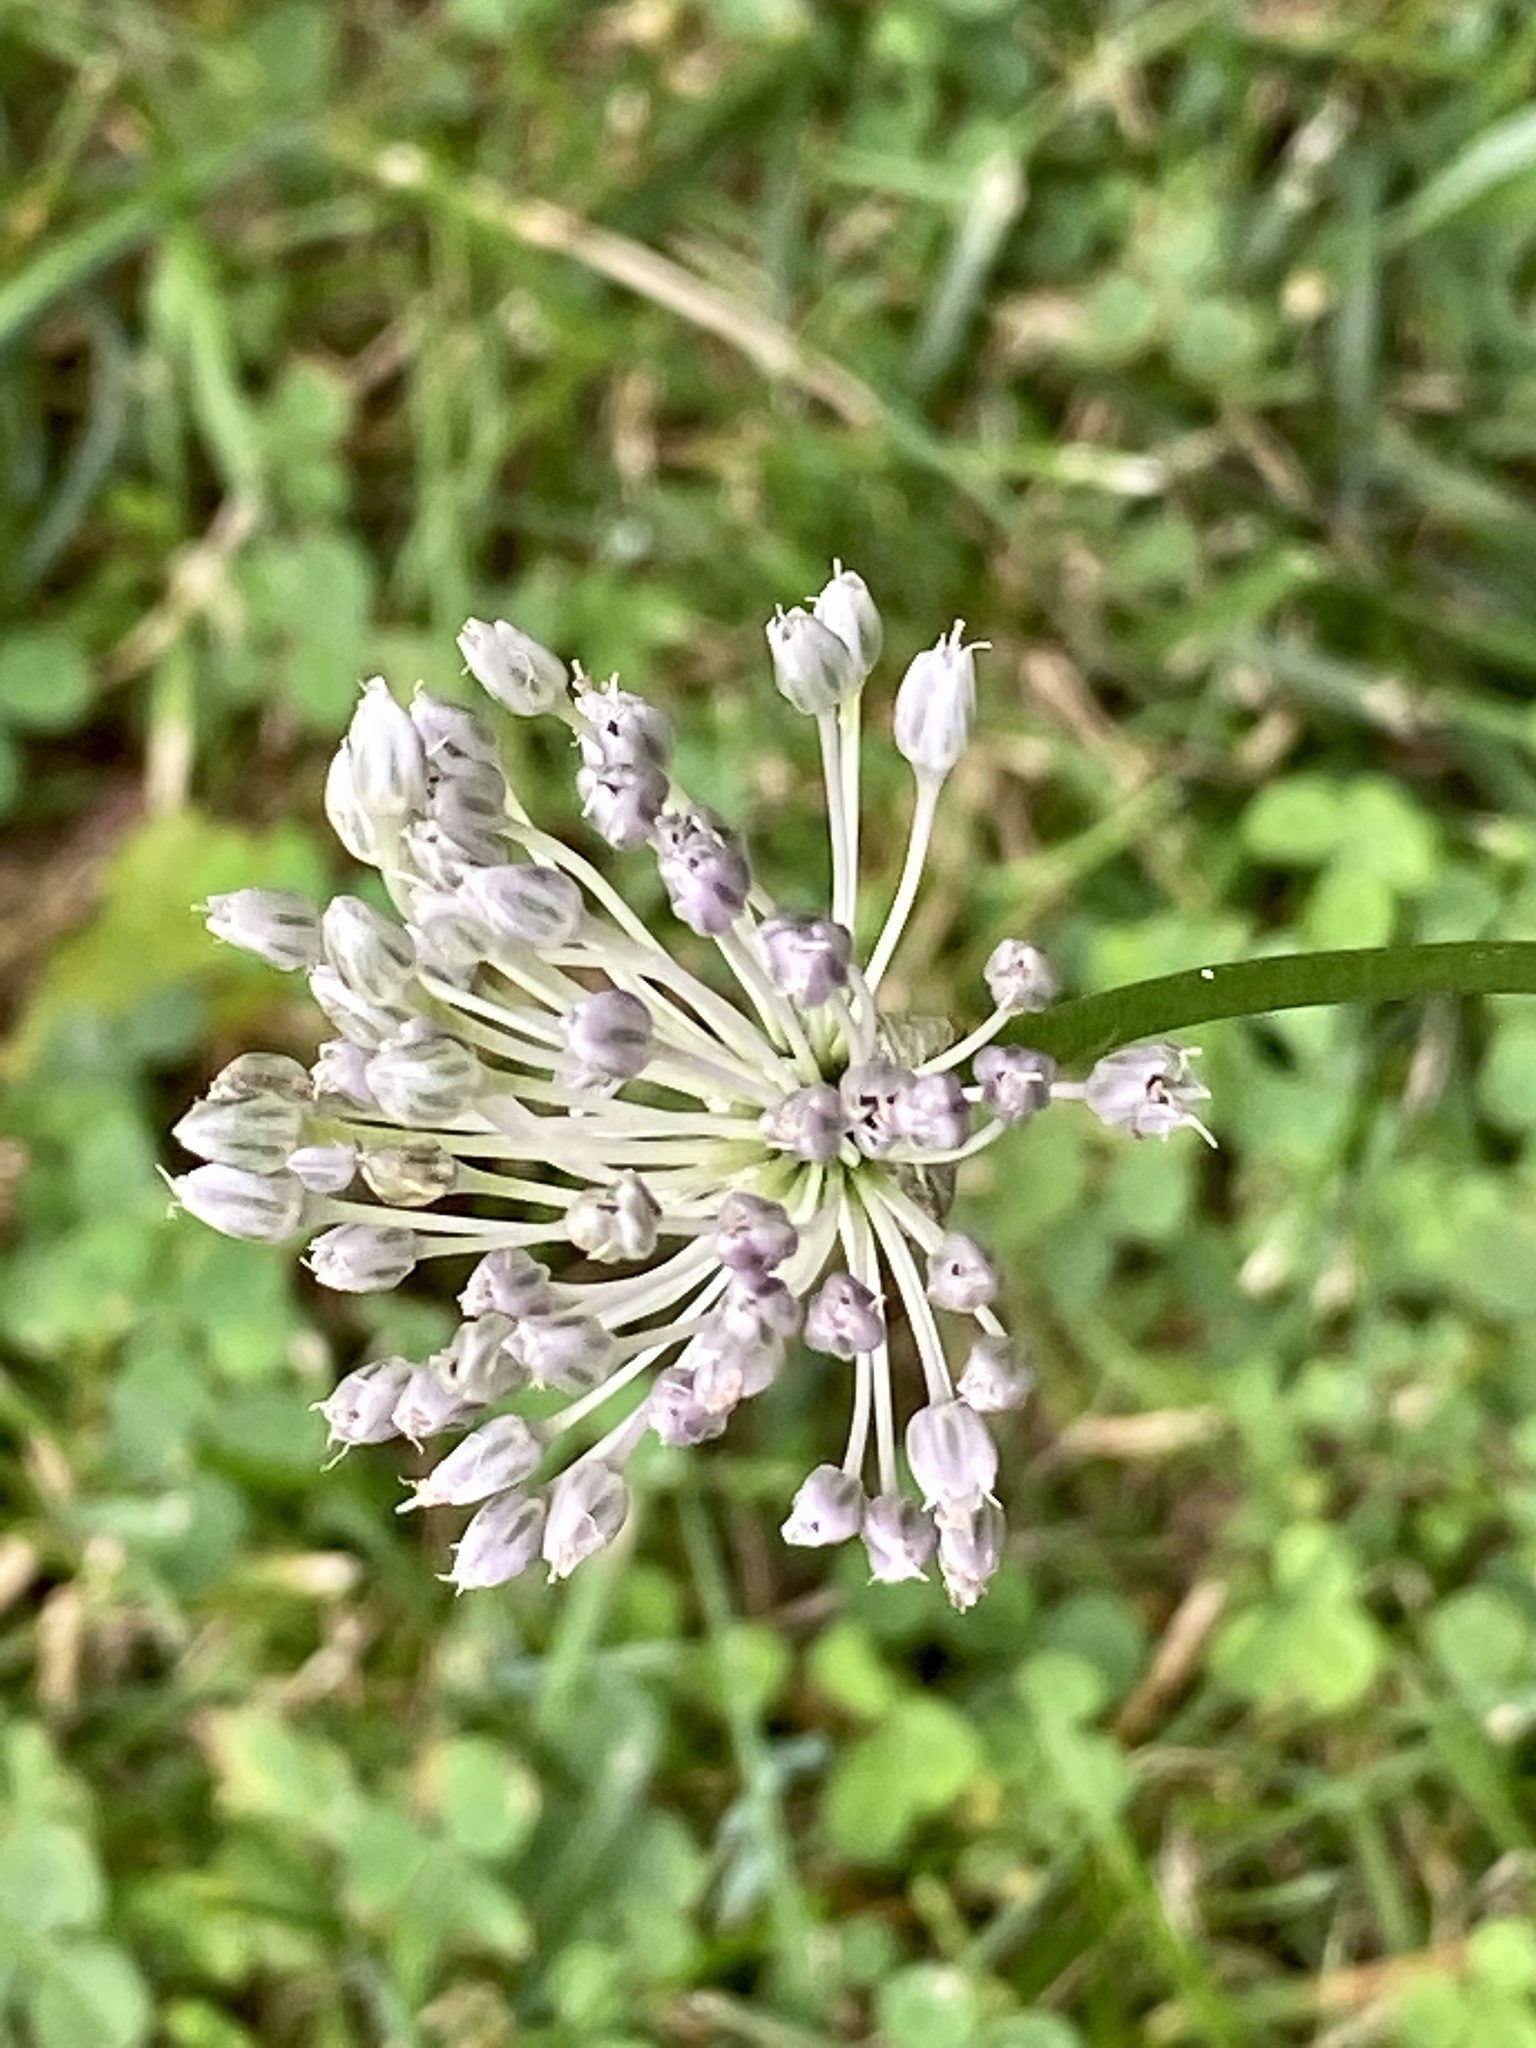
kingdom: Plantae
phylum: Tracheophyta
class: Liliopsida
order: Asparagales
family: Amaryllidaceae
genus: Allium
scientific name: Allium vineale
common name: Crow garlic
